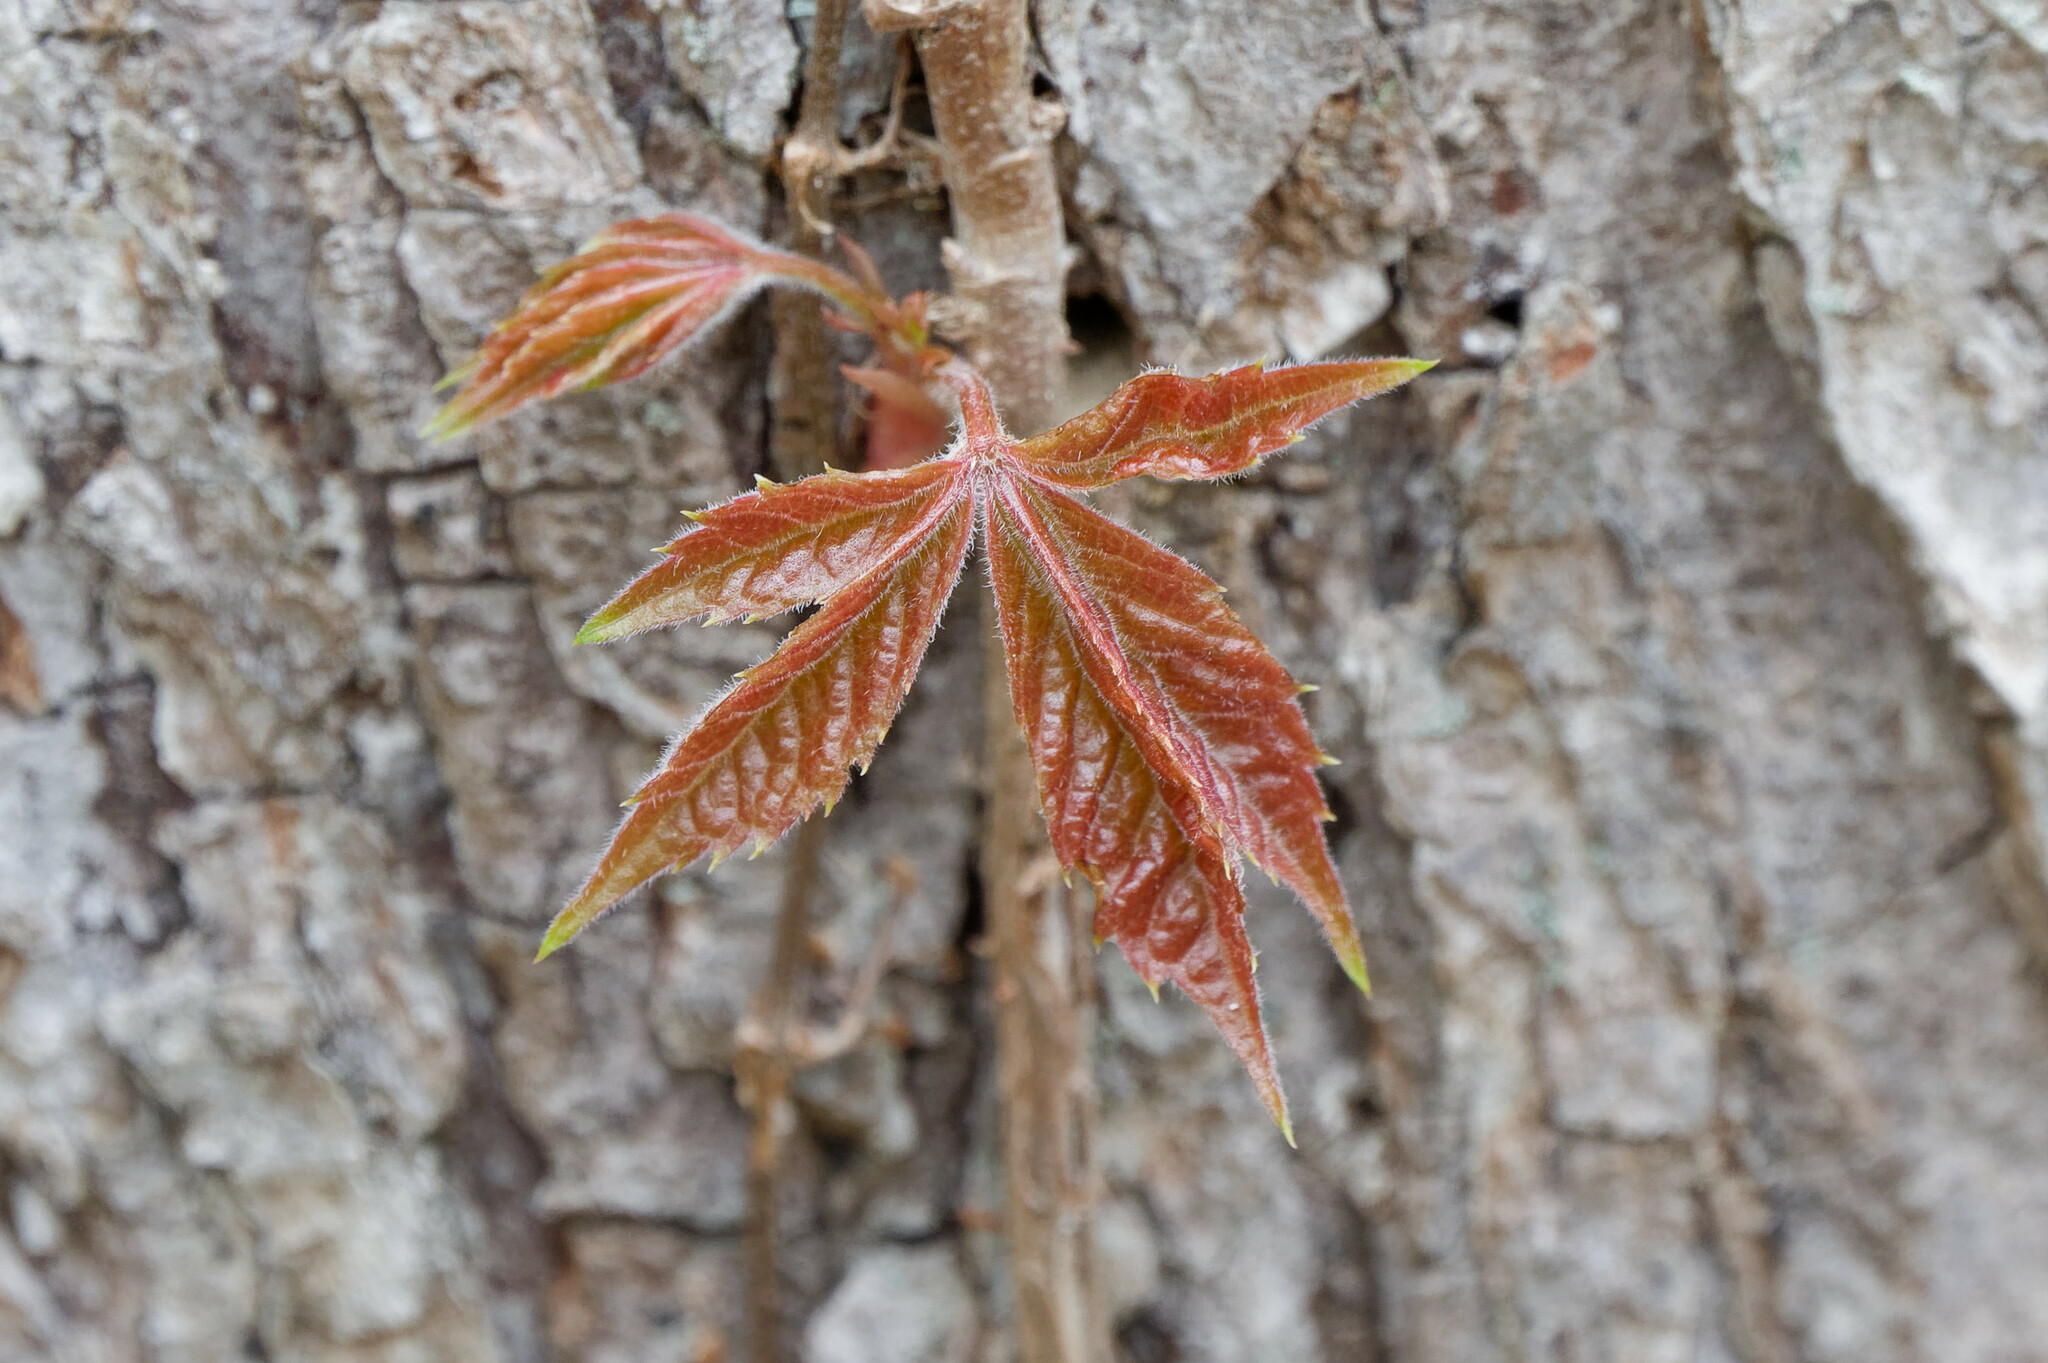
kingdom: Plantae
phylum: Tracheophyta
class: Magnoliopsida
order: Vitales
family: Vitaceae
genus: Parthenocissus
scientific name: Parthenocissus quinquefolia
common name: Virginia-creeper
